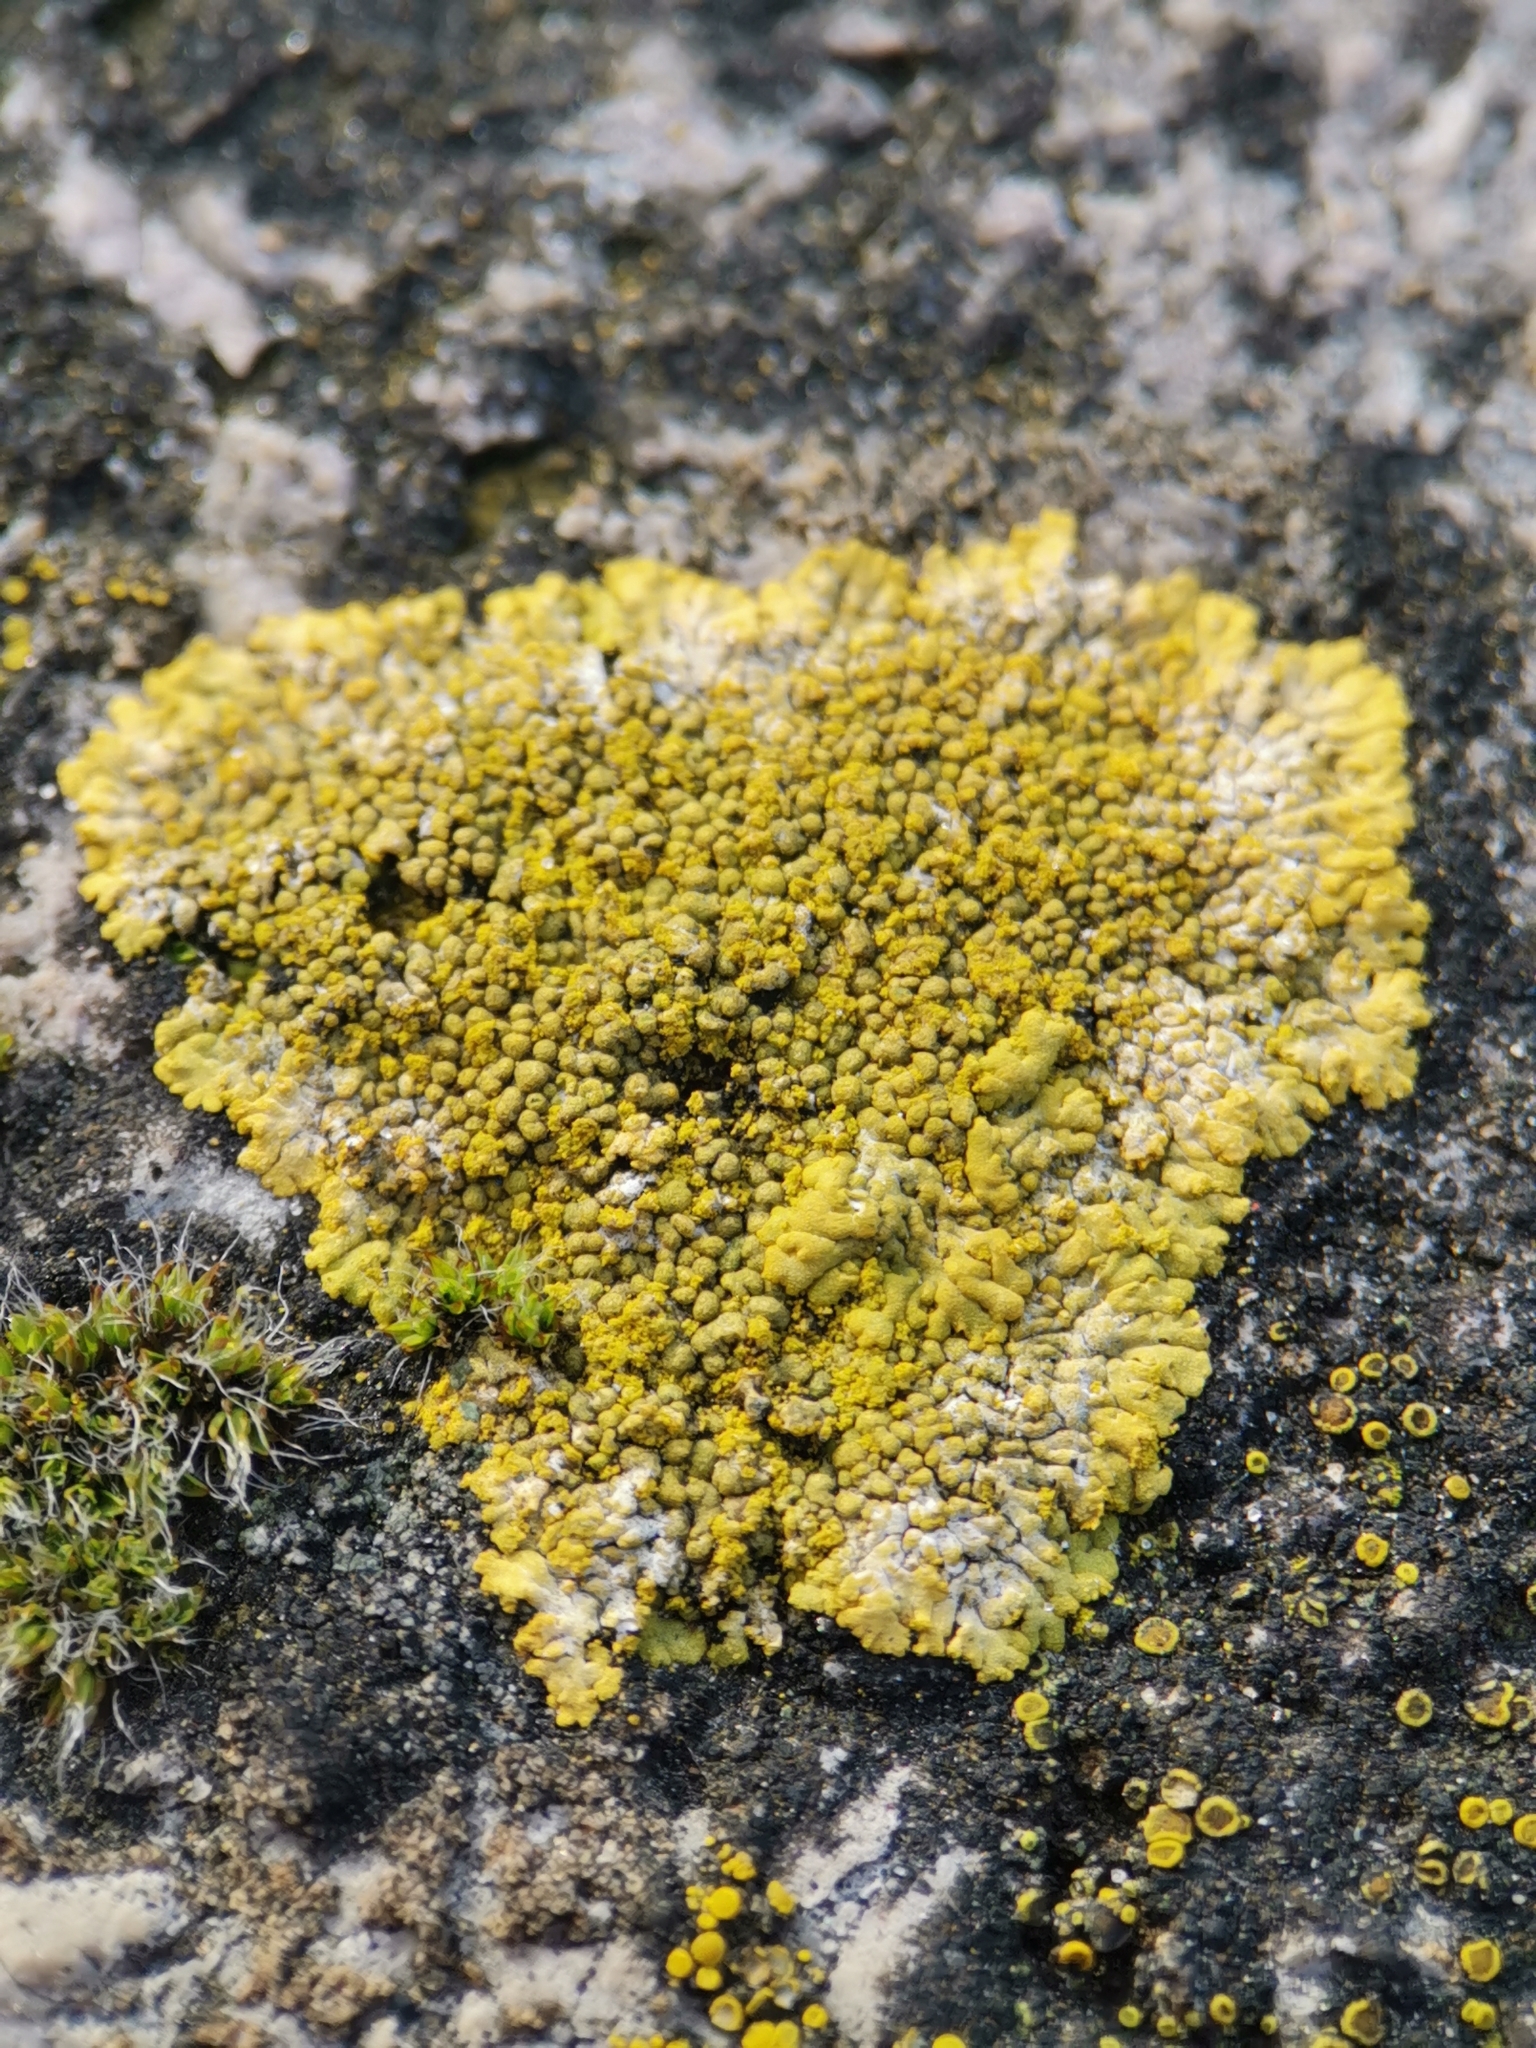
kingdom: Fungi
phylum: Ascomycota
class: Lecanoromycetes
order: Teloschistales
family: Teloschistaceae
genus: Calogaya
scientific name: Calogaya decipiens
